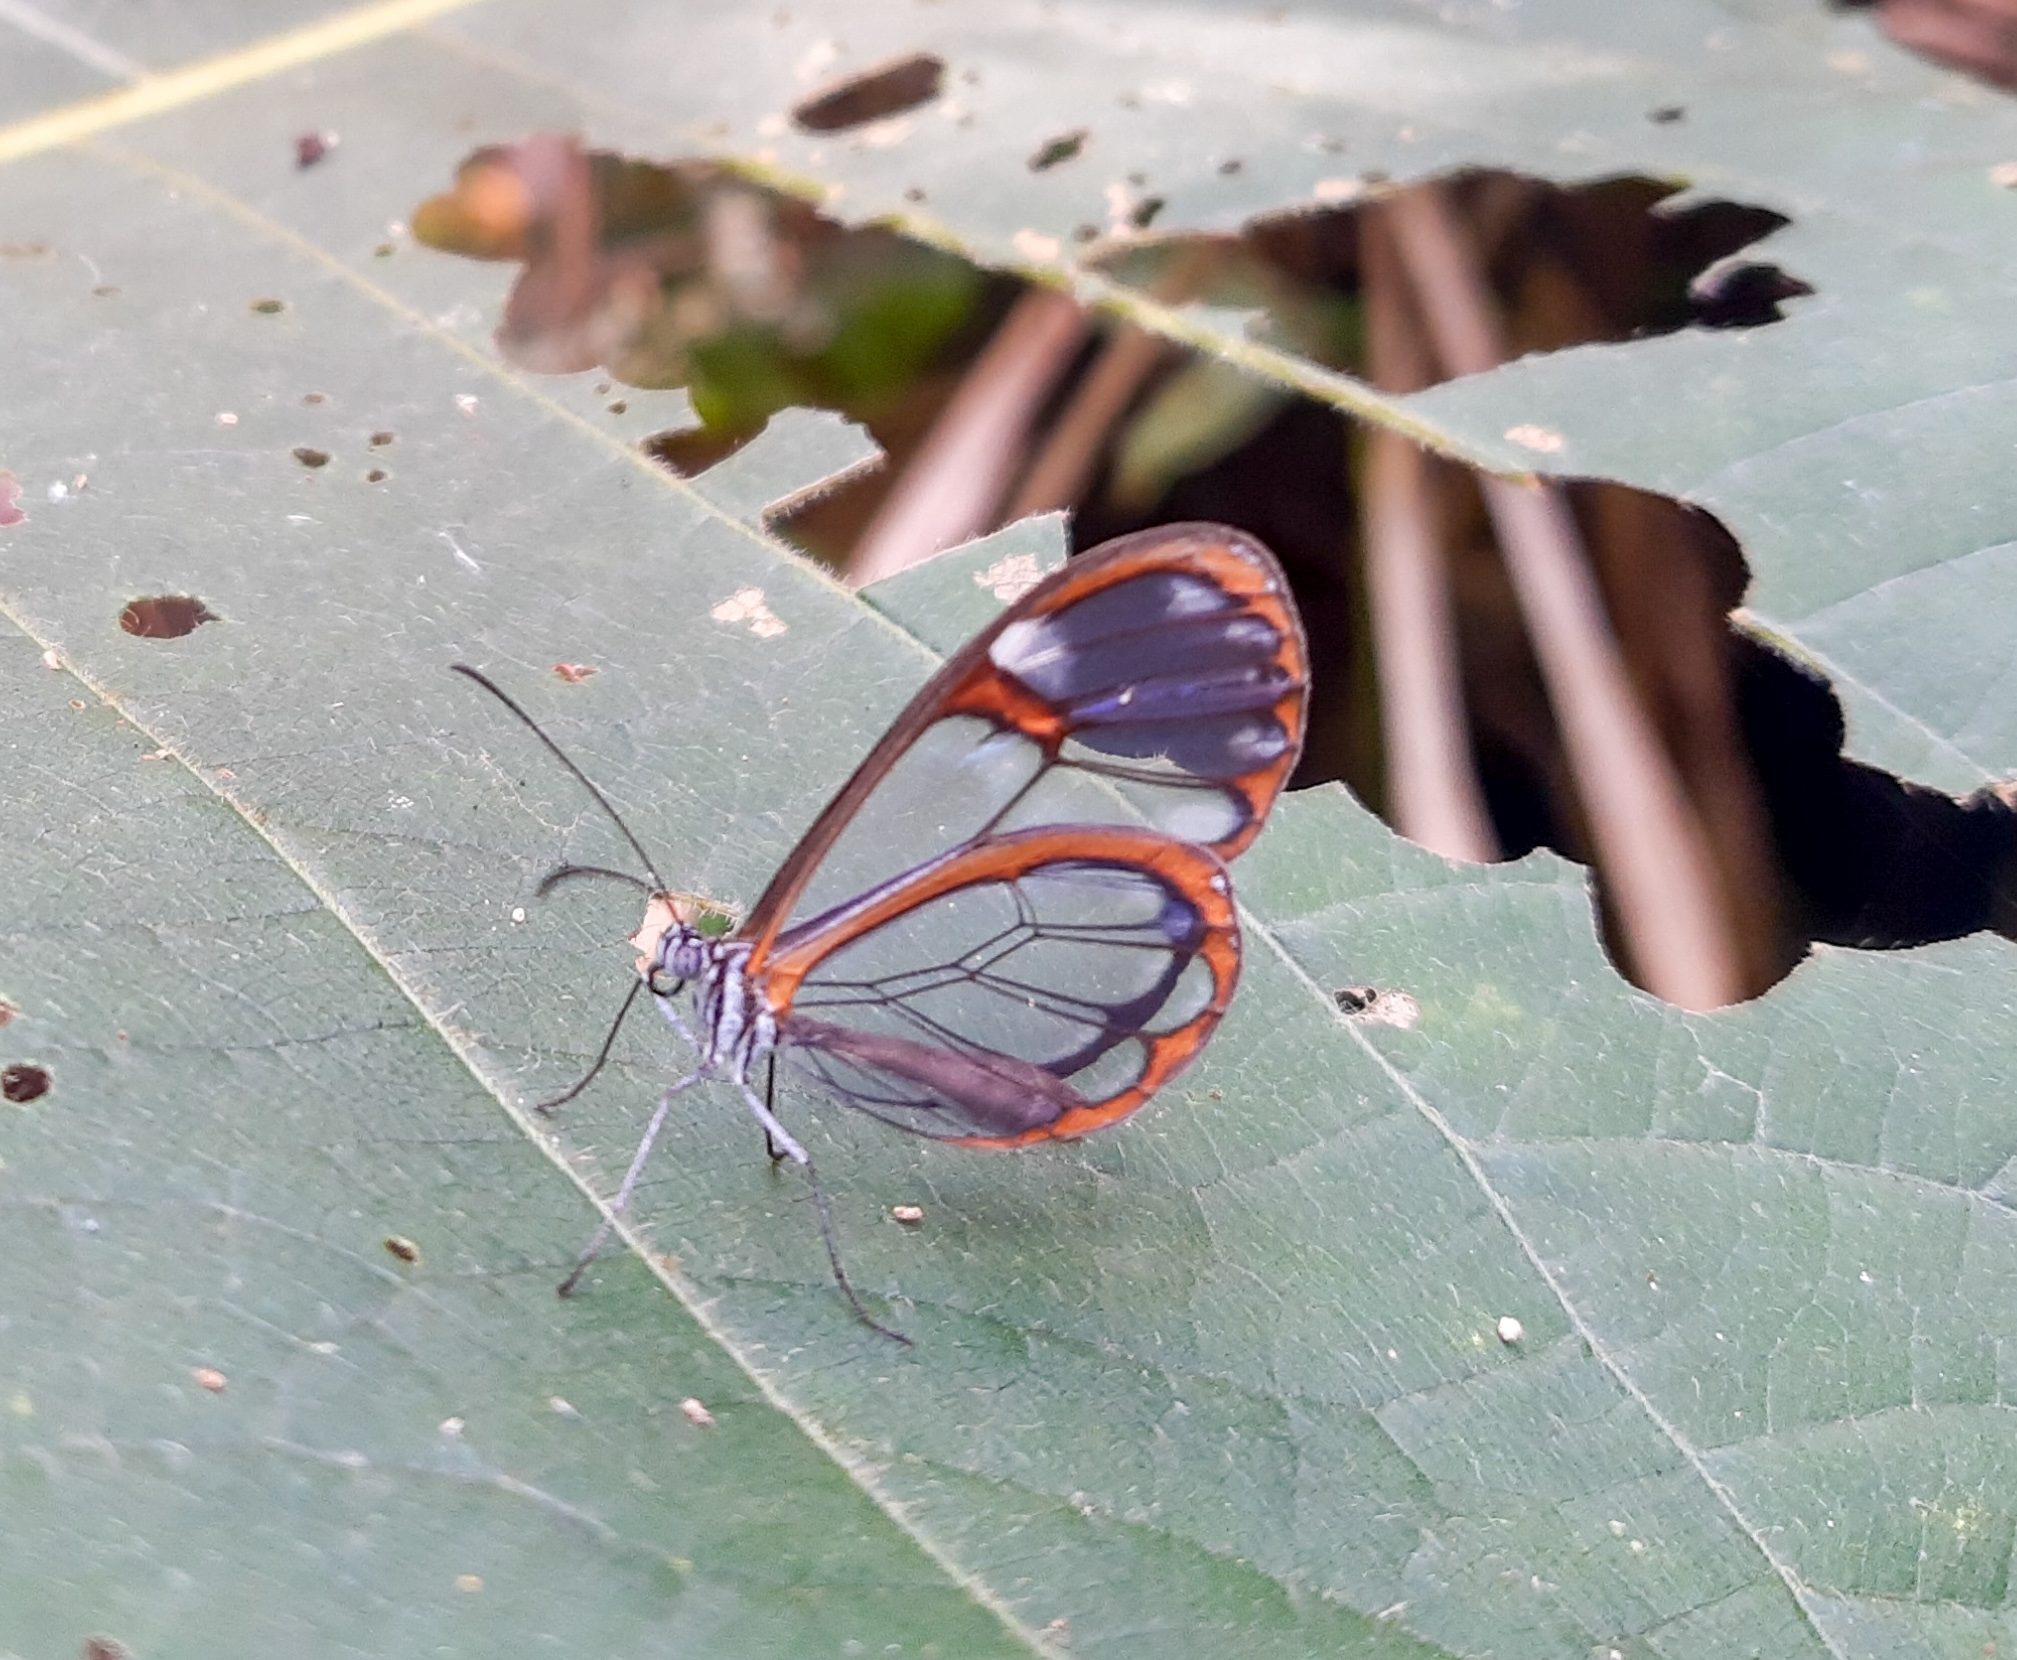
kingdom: Animalia
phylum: Arthropoda
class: Insecta
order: Lepidoptera
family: Nymphalidae
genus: Pseudoscada
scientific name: Pseudoscada erruca
